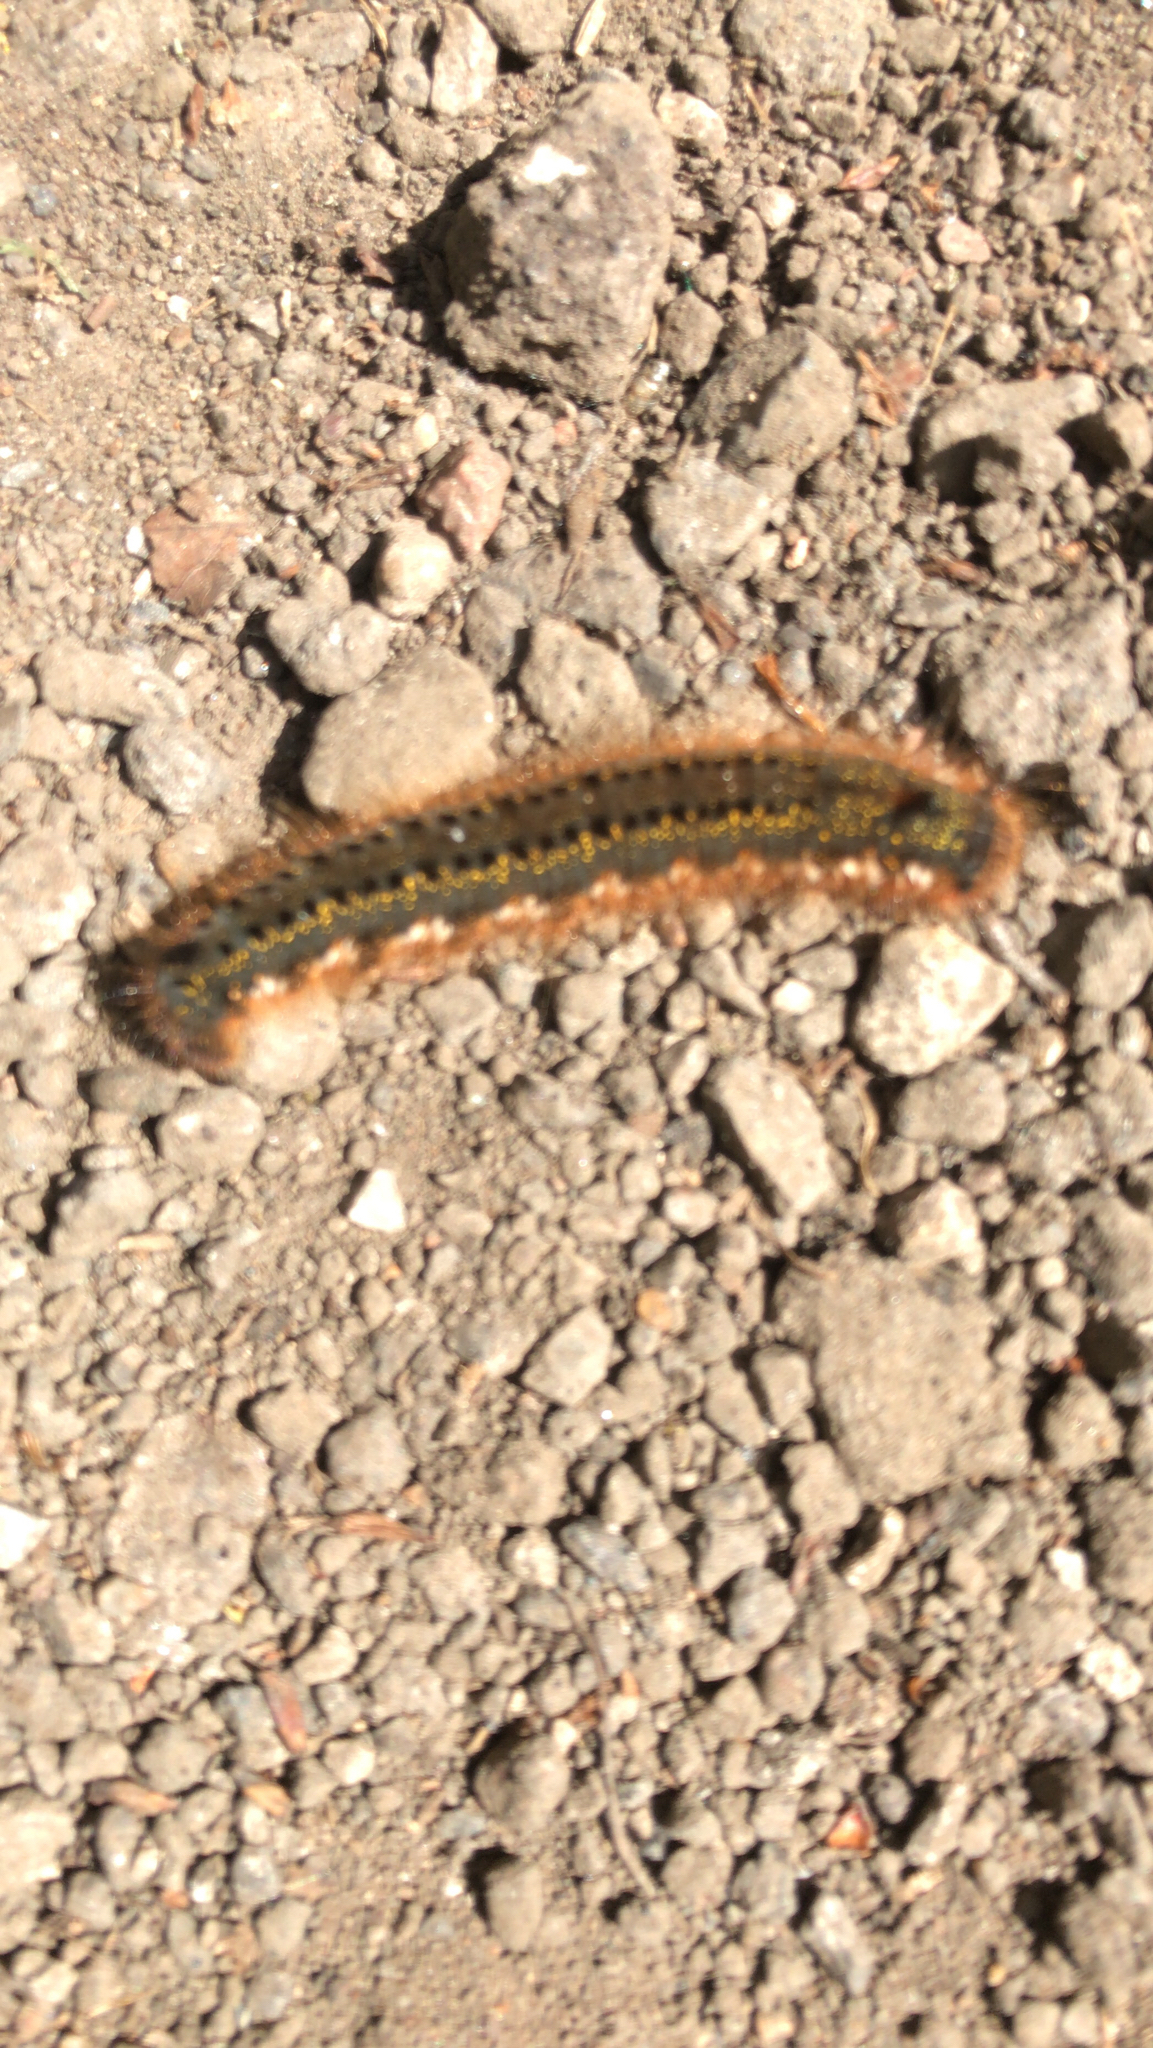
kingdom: Animalia
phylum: Arthropoda
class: Insecta
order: Lepidoptera
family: Lasiocampidae
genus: Euthrix
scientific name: Euthrix potatoria
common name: Drinker
